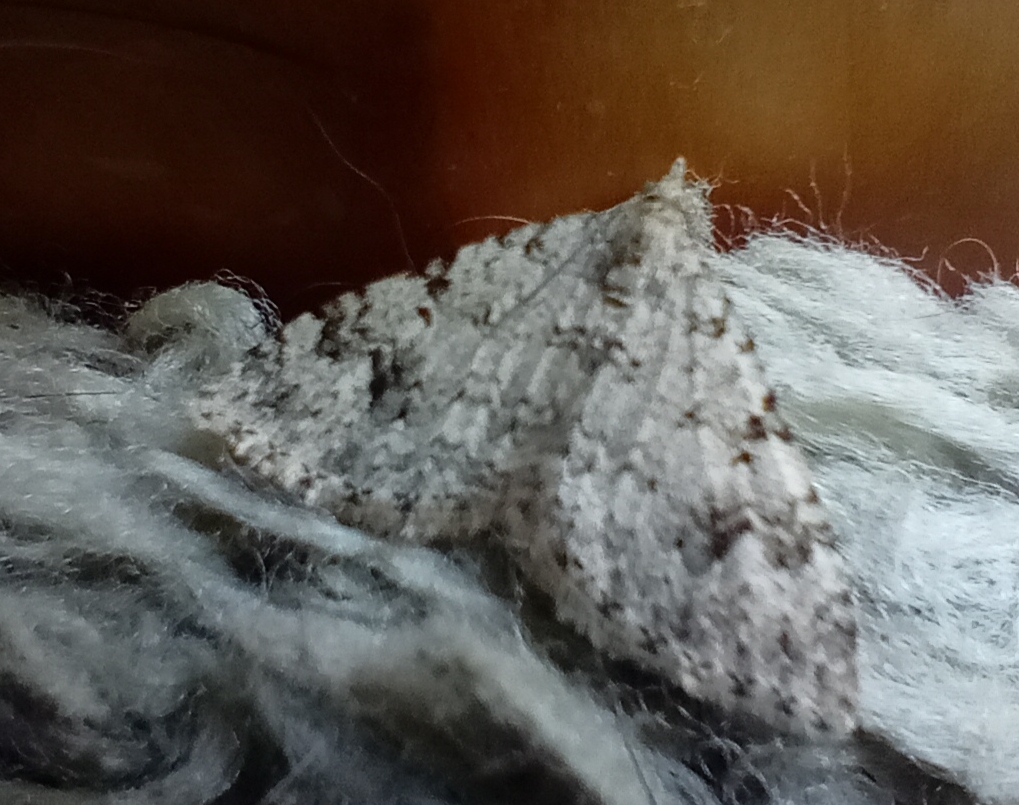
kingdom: Animalia
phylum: Arthropoda
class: Insecta
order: Lepidoptera
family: Geometridae
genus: Helastia
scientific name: Helastia cinerearia
